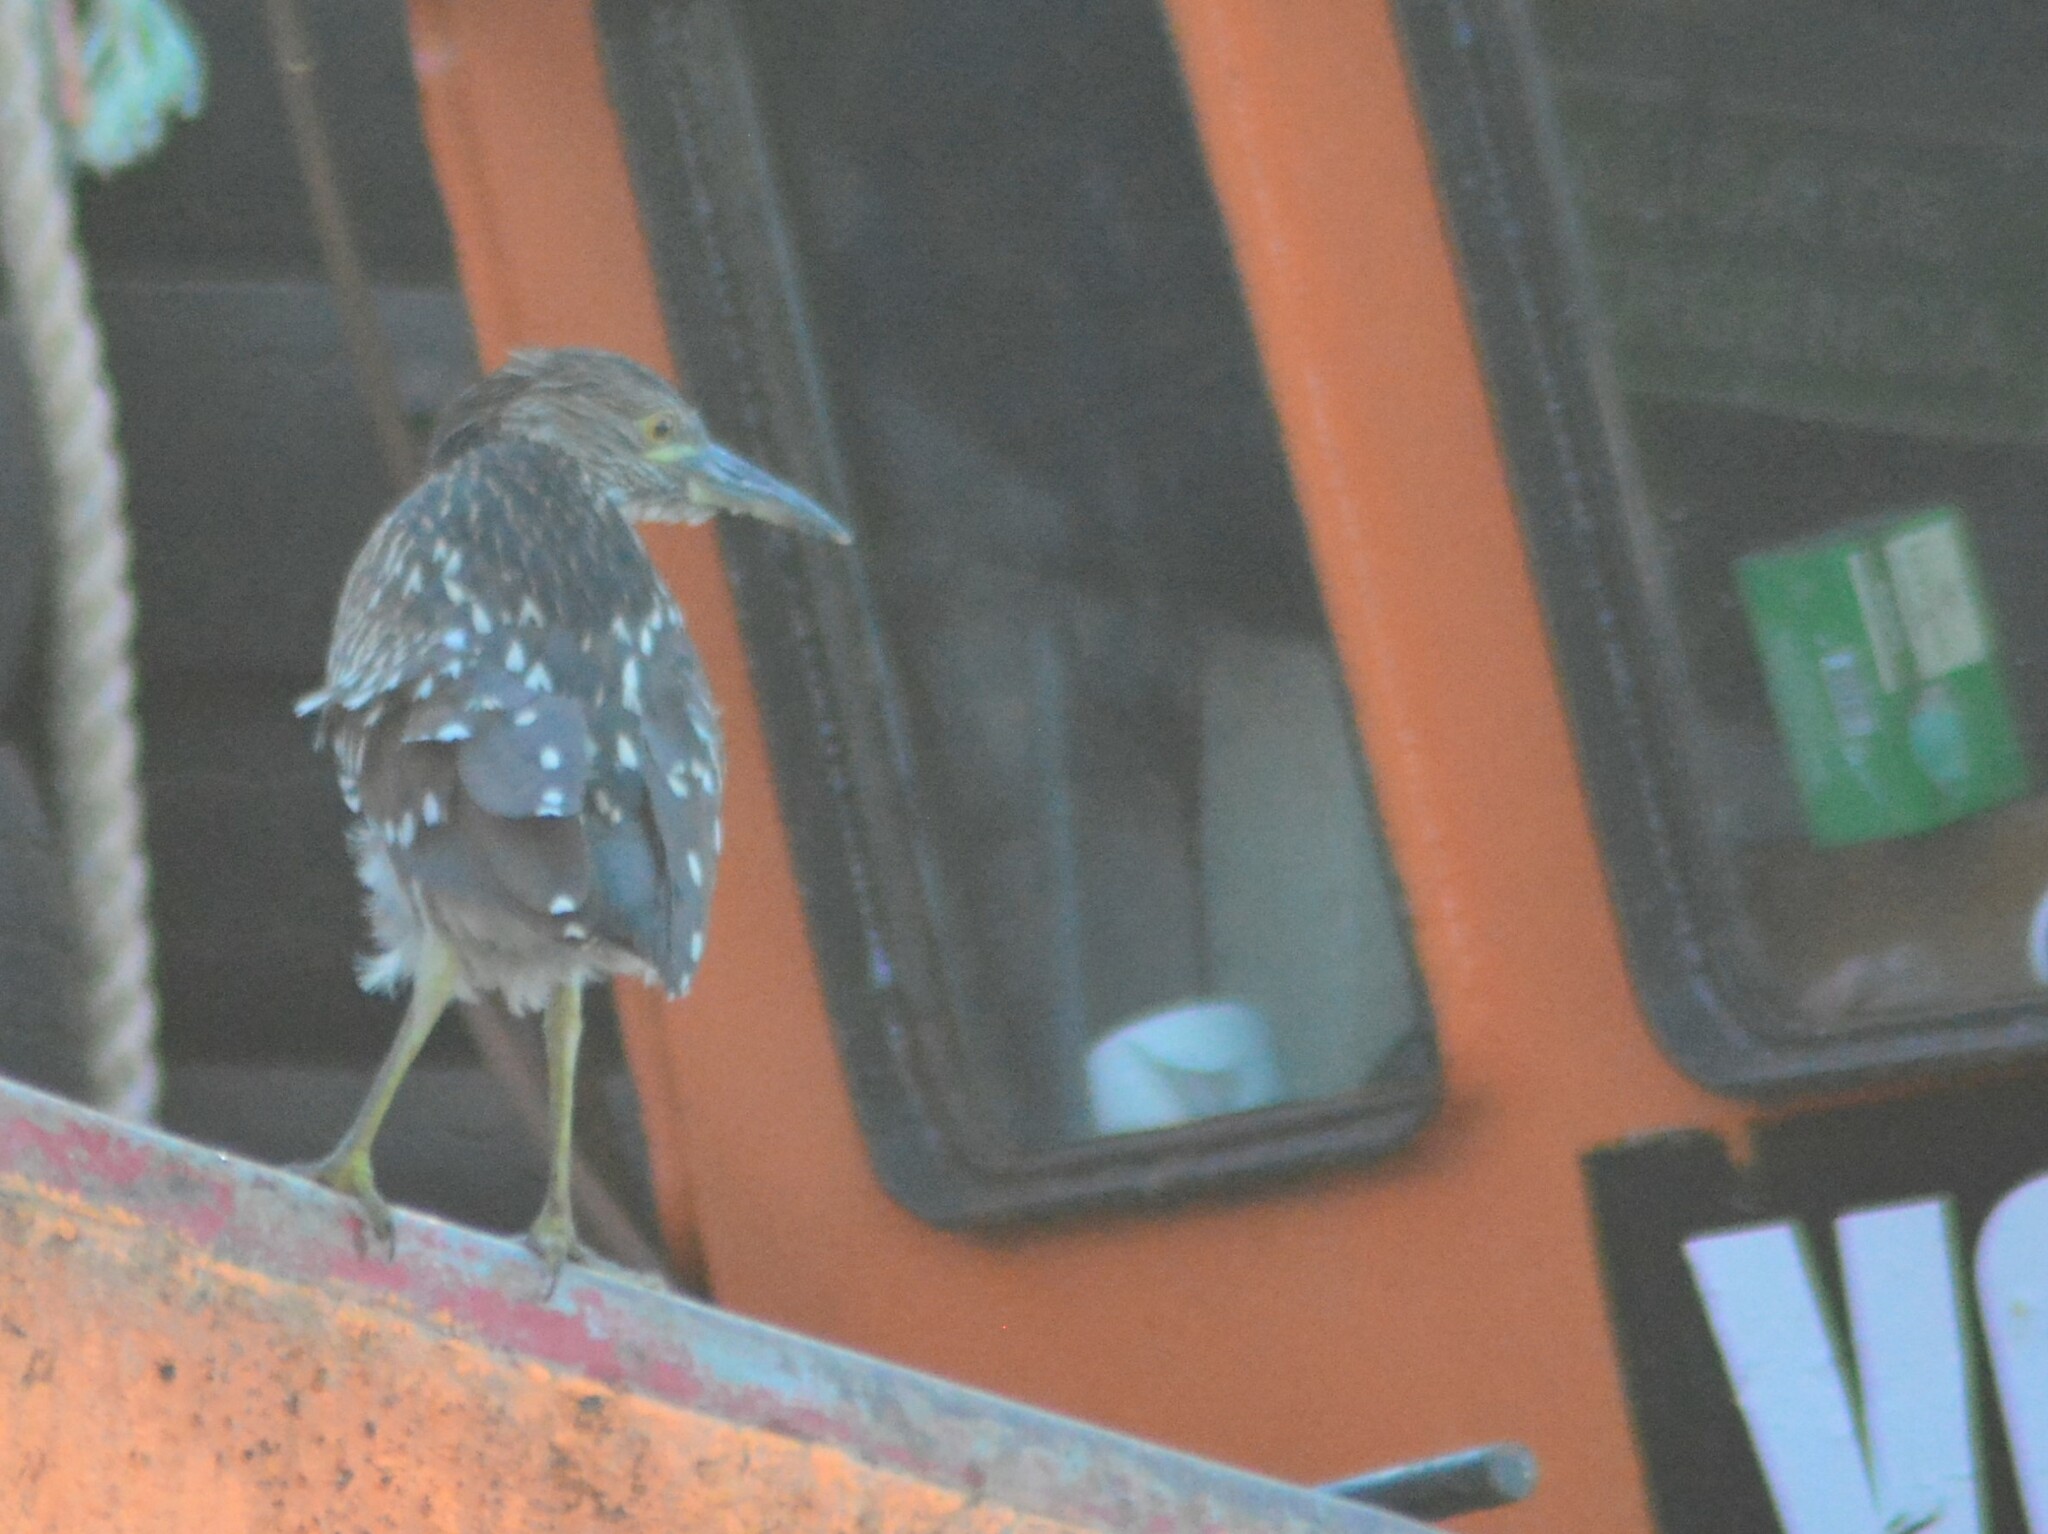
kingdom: Animalia
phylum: Chordata
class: Aves
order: Pelecaniformes
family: Ardeidae
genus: Nycticorax
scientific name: Nycticorax nycticorax
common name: Black-crowned night heron
